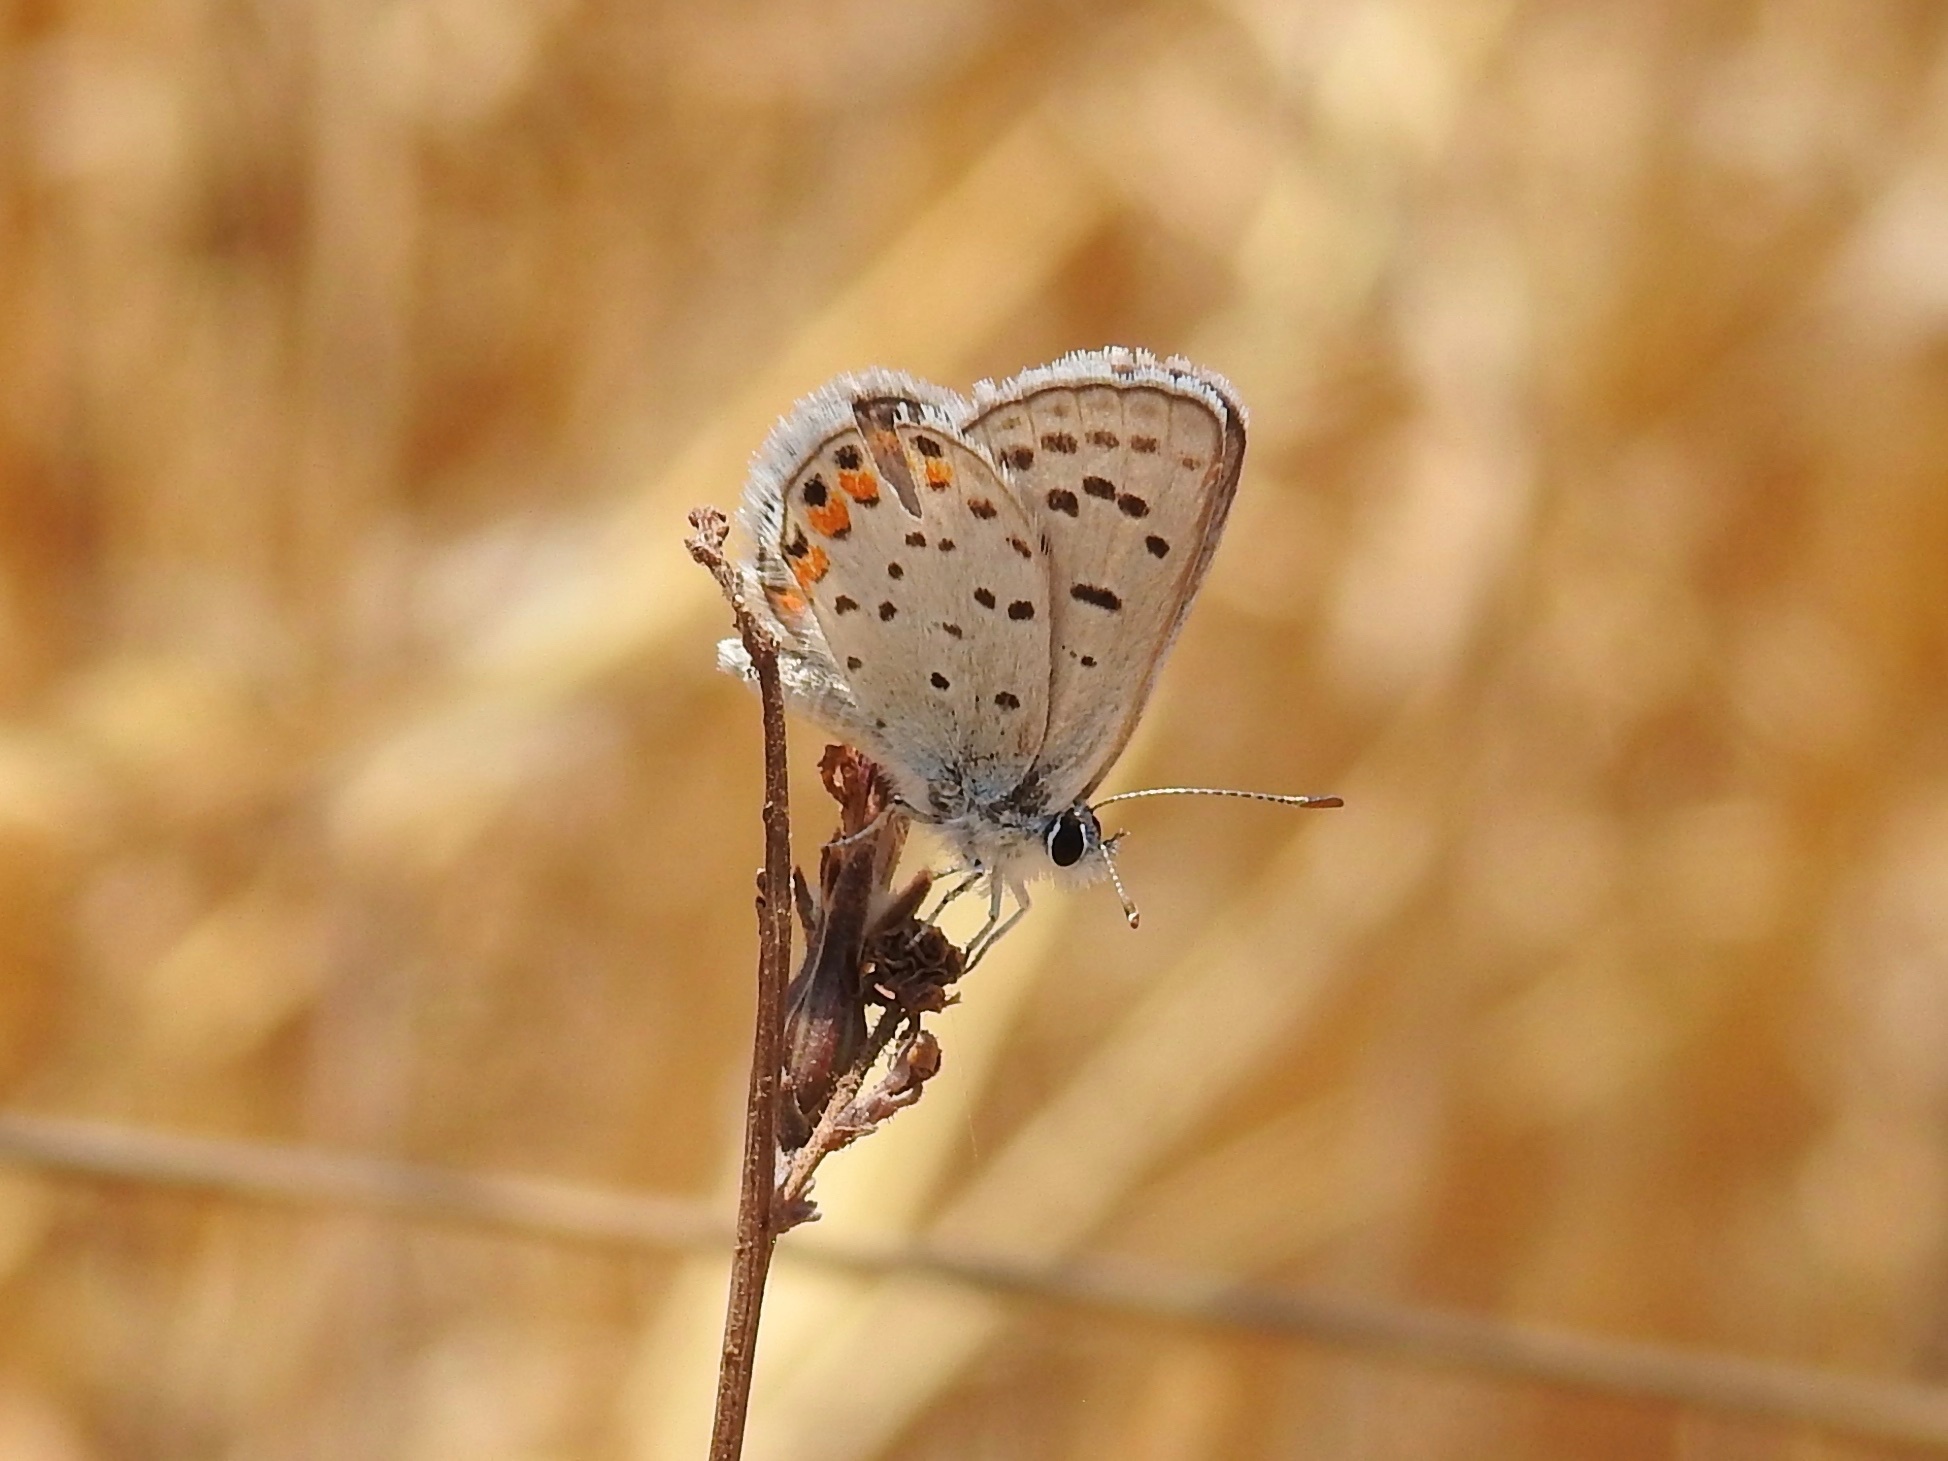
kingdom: Animalia
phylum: Arthropoda
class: Insecta
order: Lepidoptera
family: Lycaenidae
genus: Icaricia
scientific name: Icaricia acmon
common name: Acmon blue
